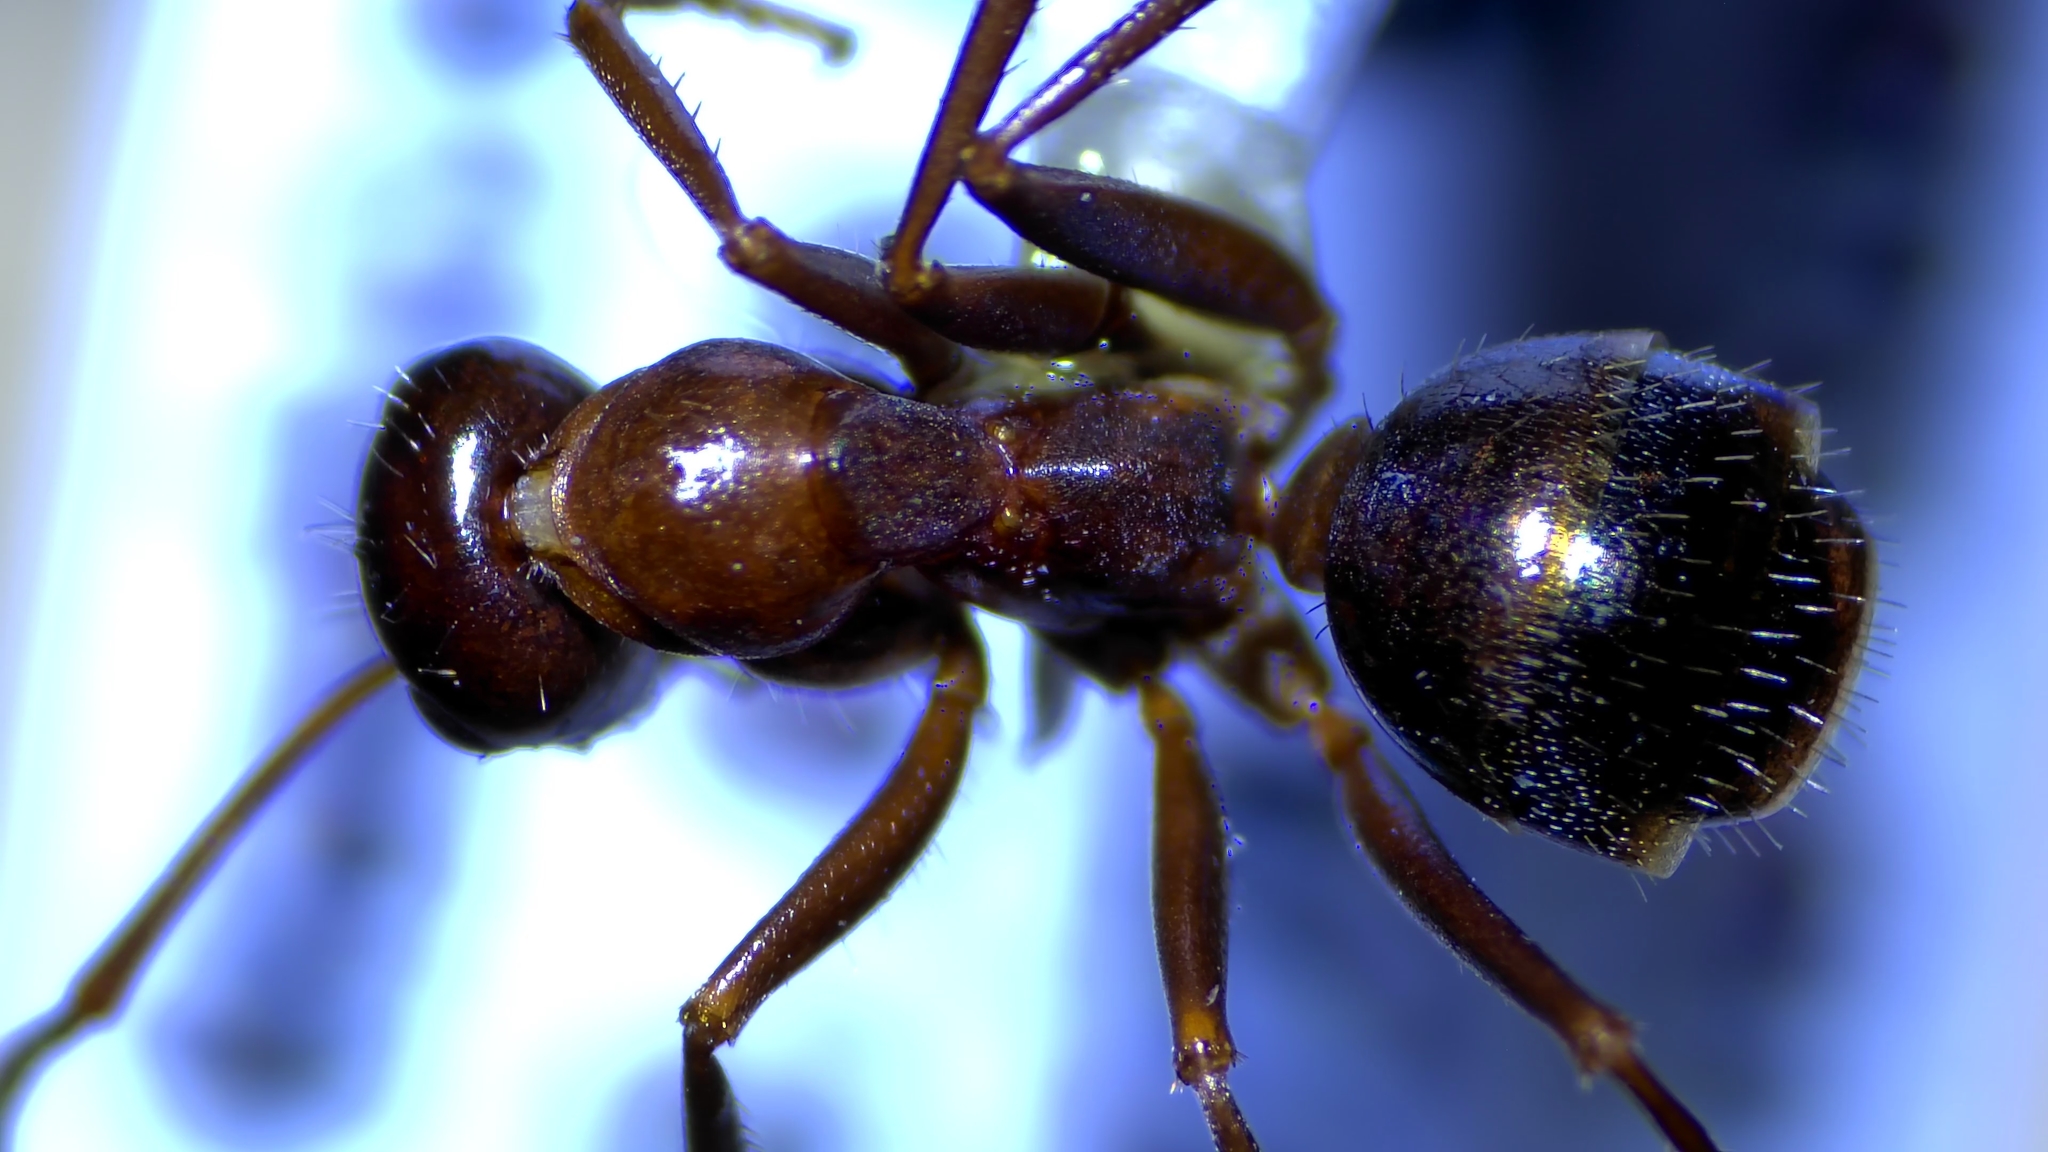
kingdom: Animalia
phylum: Arthropoda
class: Insecta
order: Hymenoptera
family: Formicidae
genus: Formica
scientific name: Formica incerta
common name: Uncertain field ant
